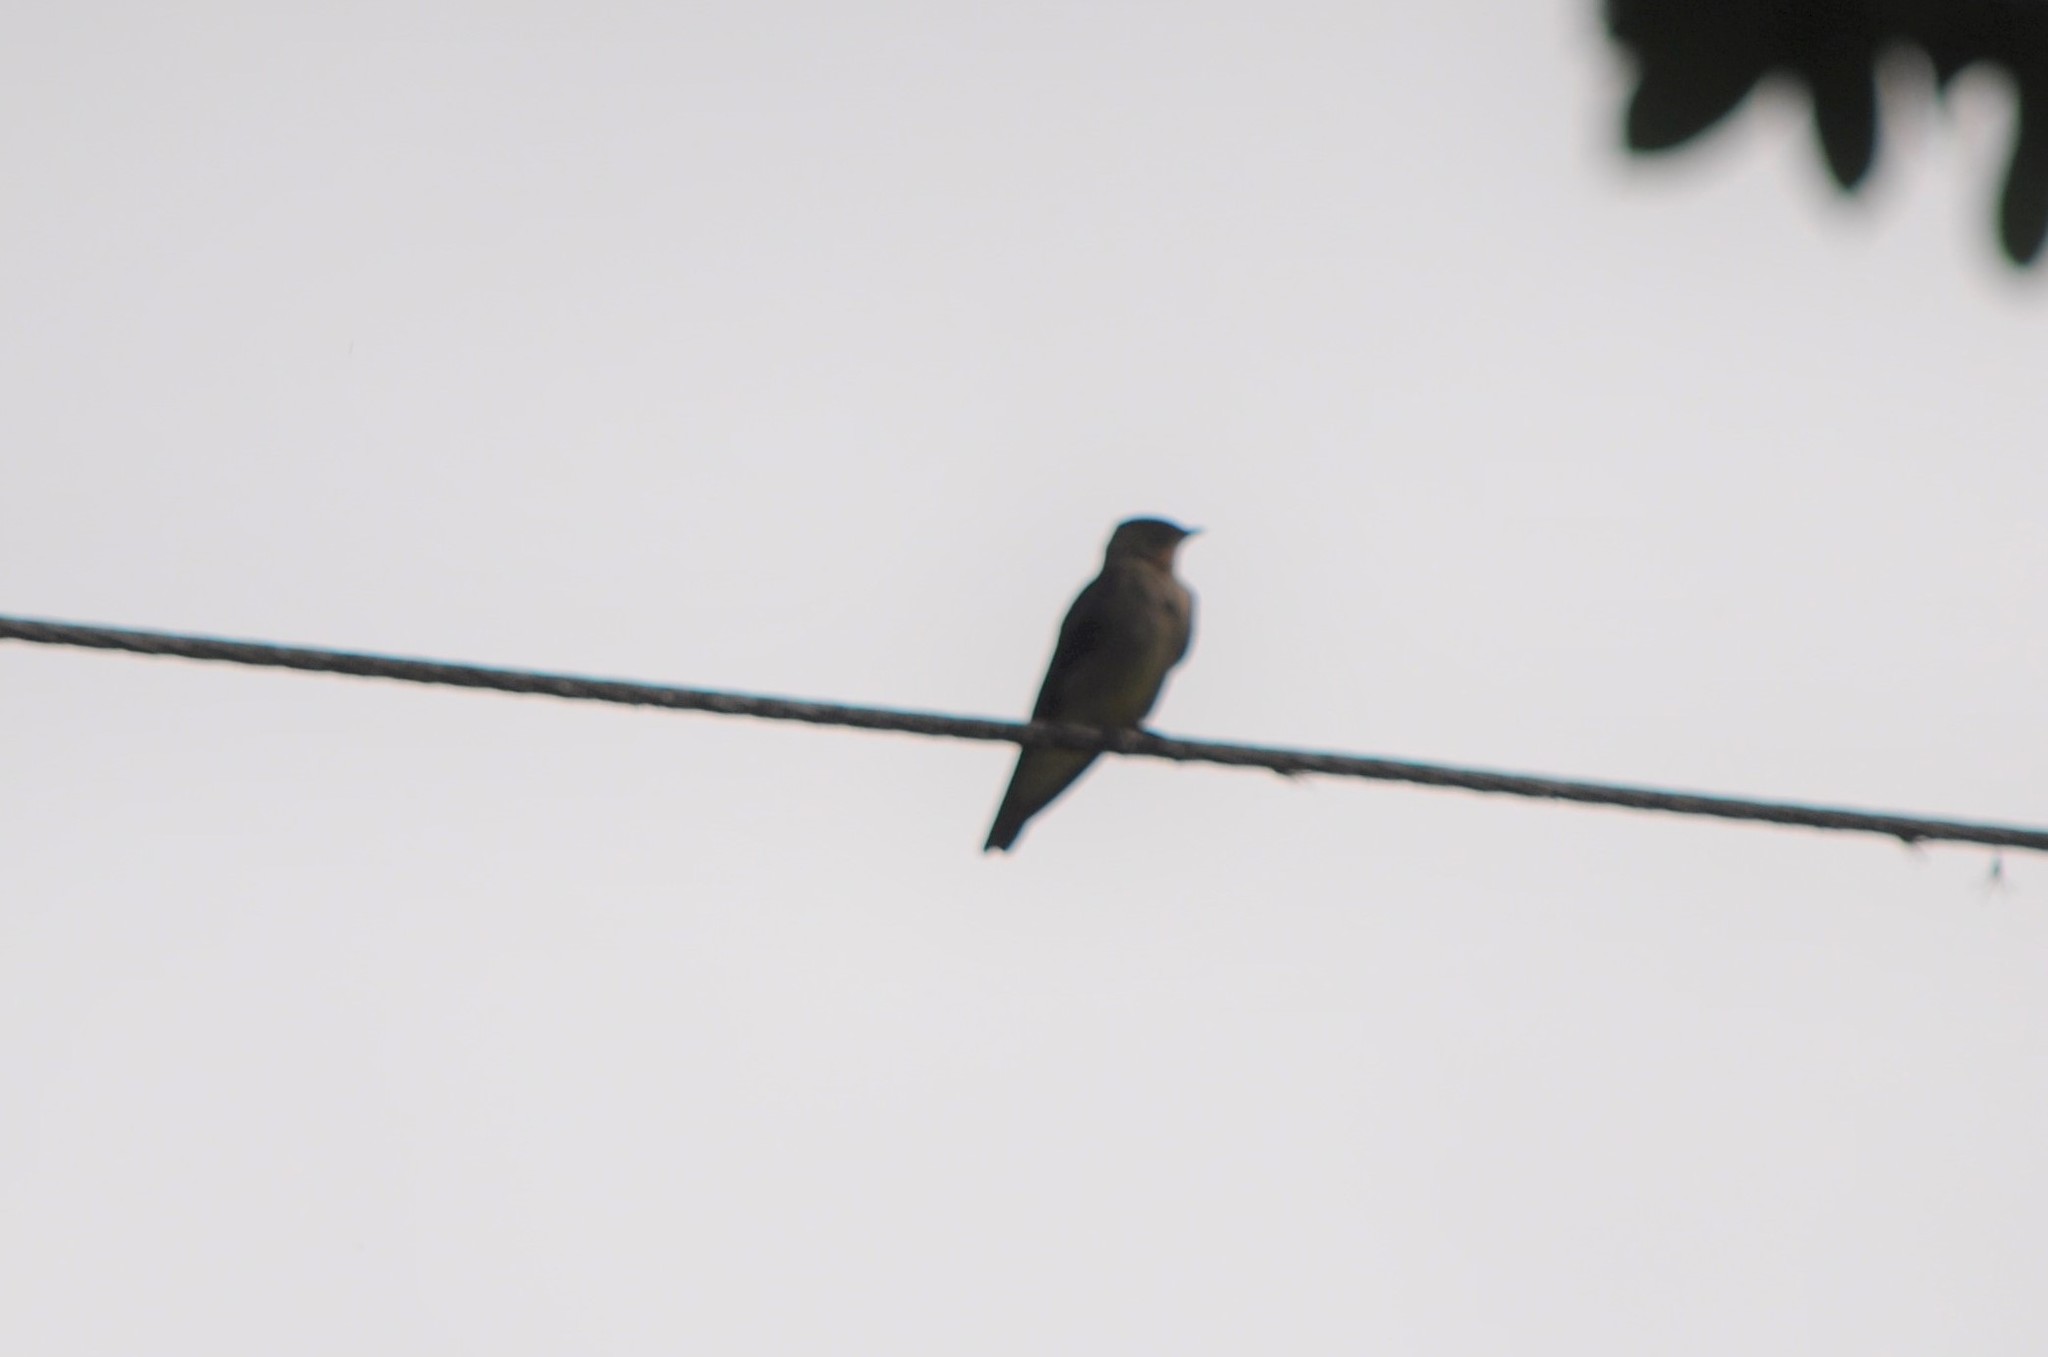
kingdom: Animalia
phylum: Chordata
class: Aves
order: Passeriformes
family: Hirundinidae
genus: Stelgidopteryx
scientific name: Stelgidopteryx ruficollis
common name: Southern rough-winged swallow
